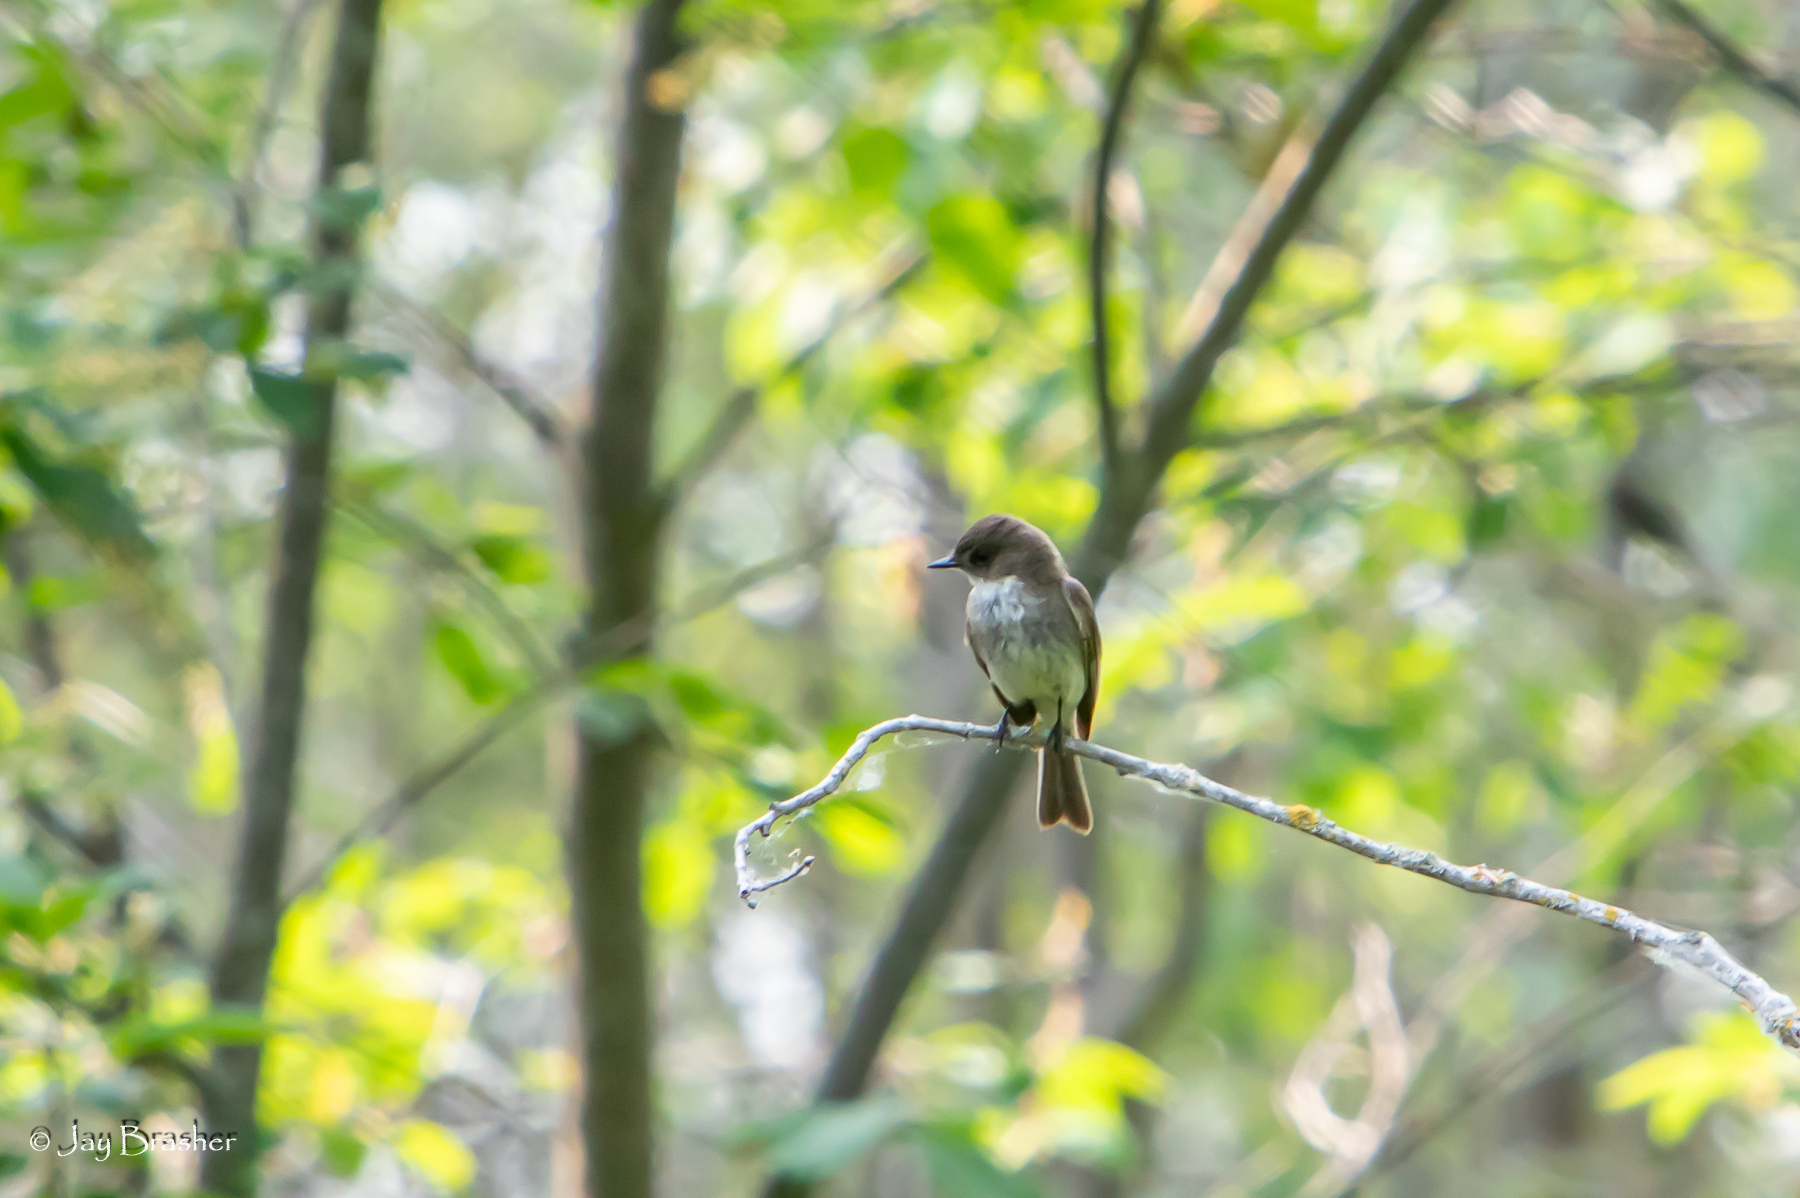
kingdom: Animalia
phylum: Chordata
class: Aves
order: Passeriformes
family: Tyrannidae
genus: Sayornis
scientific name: Sayornis phoebe
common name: Eastern phoebe
